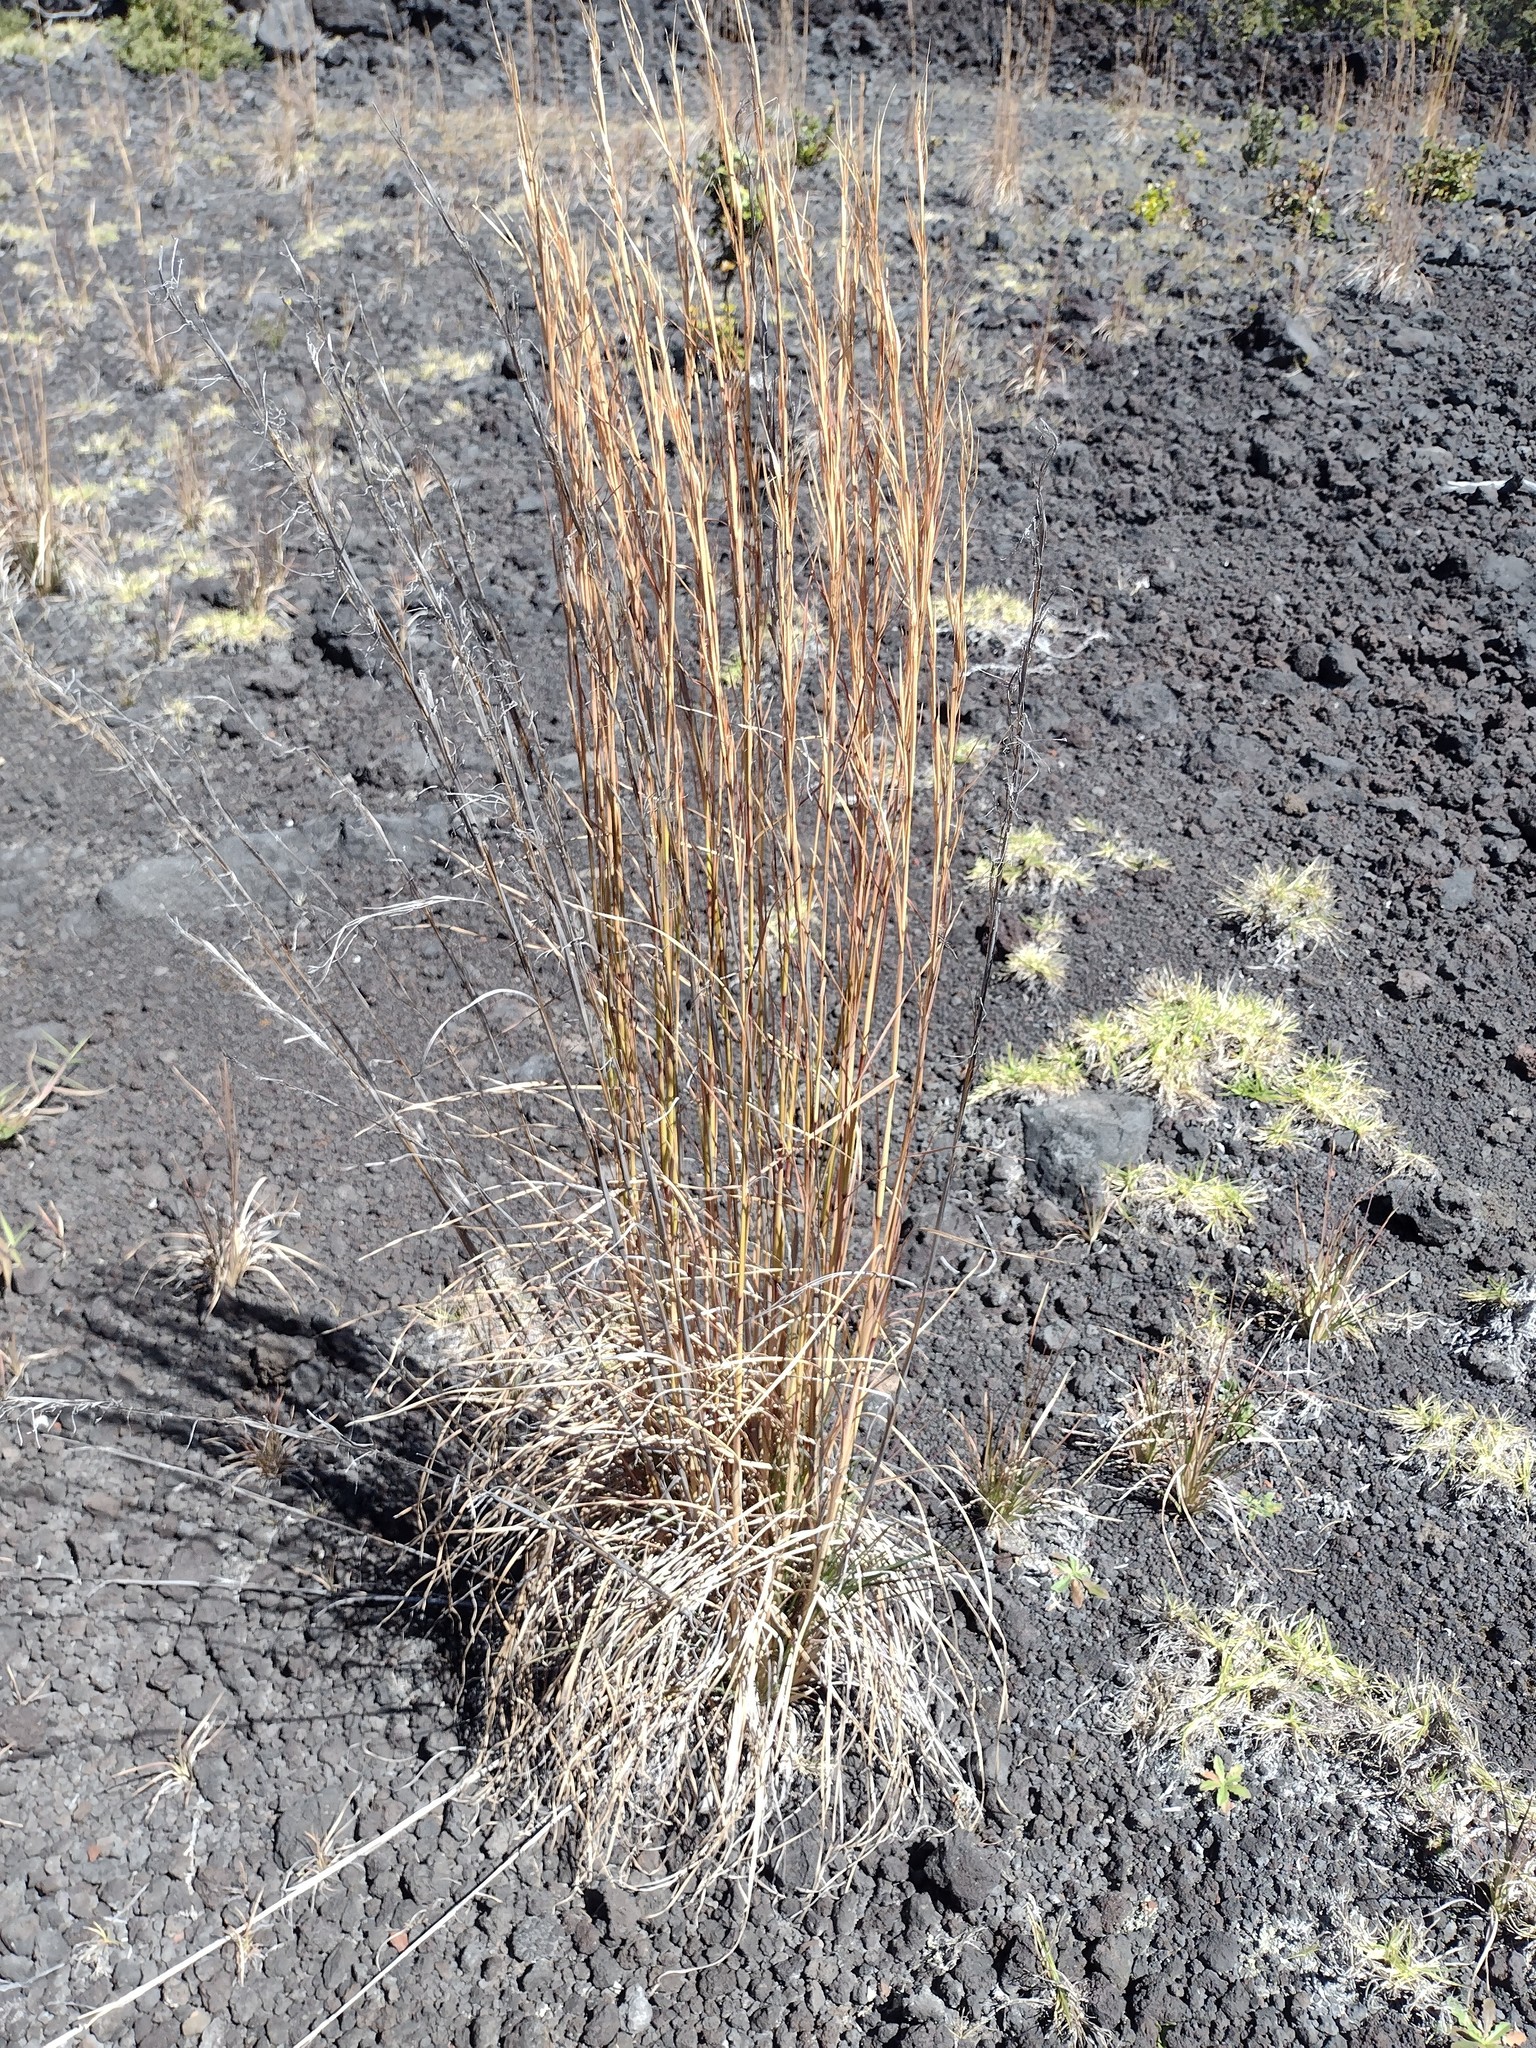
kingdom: Plantae
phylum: Tracheophyta
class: Liliopsida
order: Poales
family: Poaceae
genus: Andropogon
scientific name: Andropogon virginicus
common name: Broomsedge bluestem
